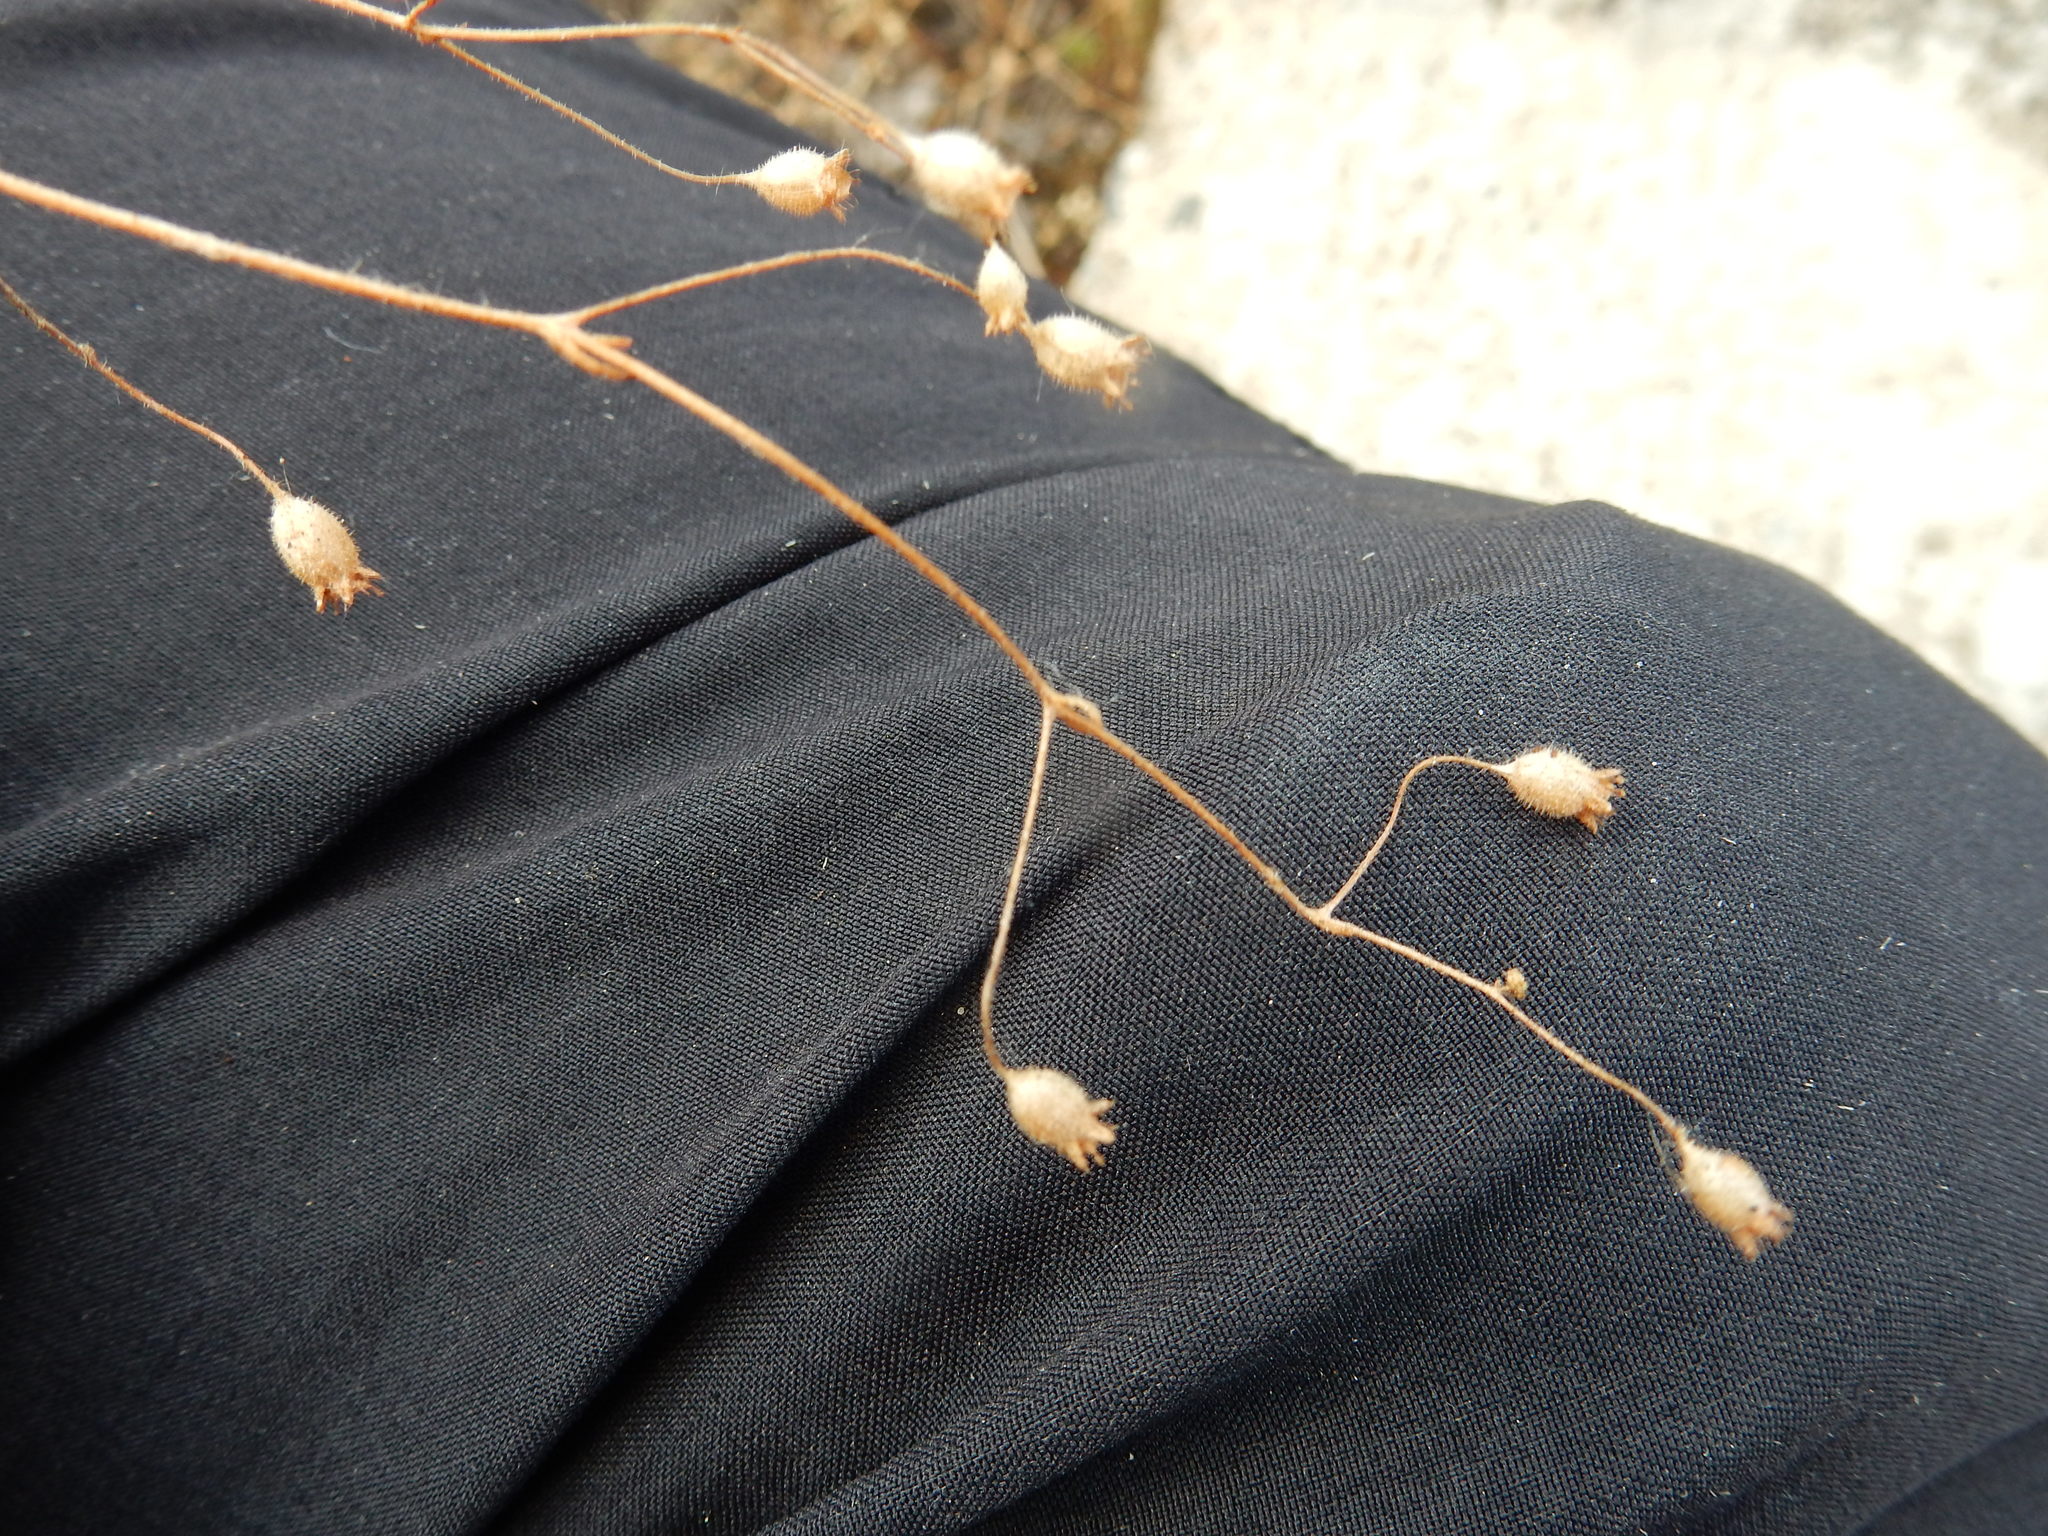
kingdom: Plantae
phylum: Tracheophyta
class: Magnoliopsida
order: Saxifragales
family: Saxifragaceae
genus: Saxifraga
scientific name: Saxifraga tridactylites
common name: Rue-leaved saxifrage
